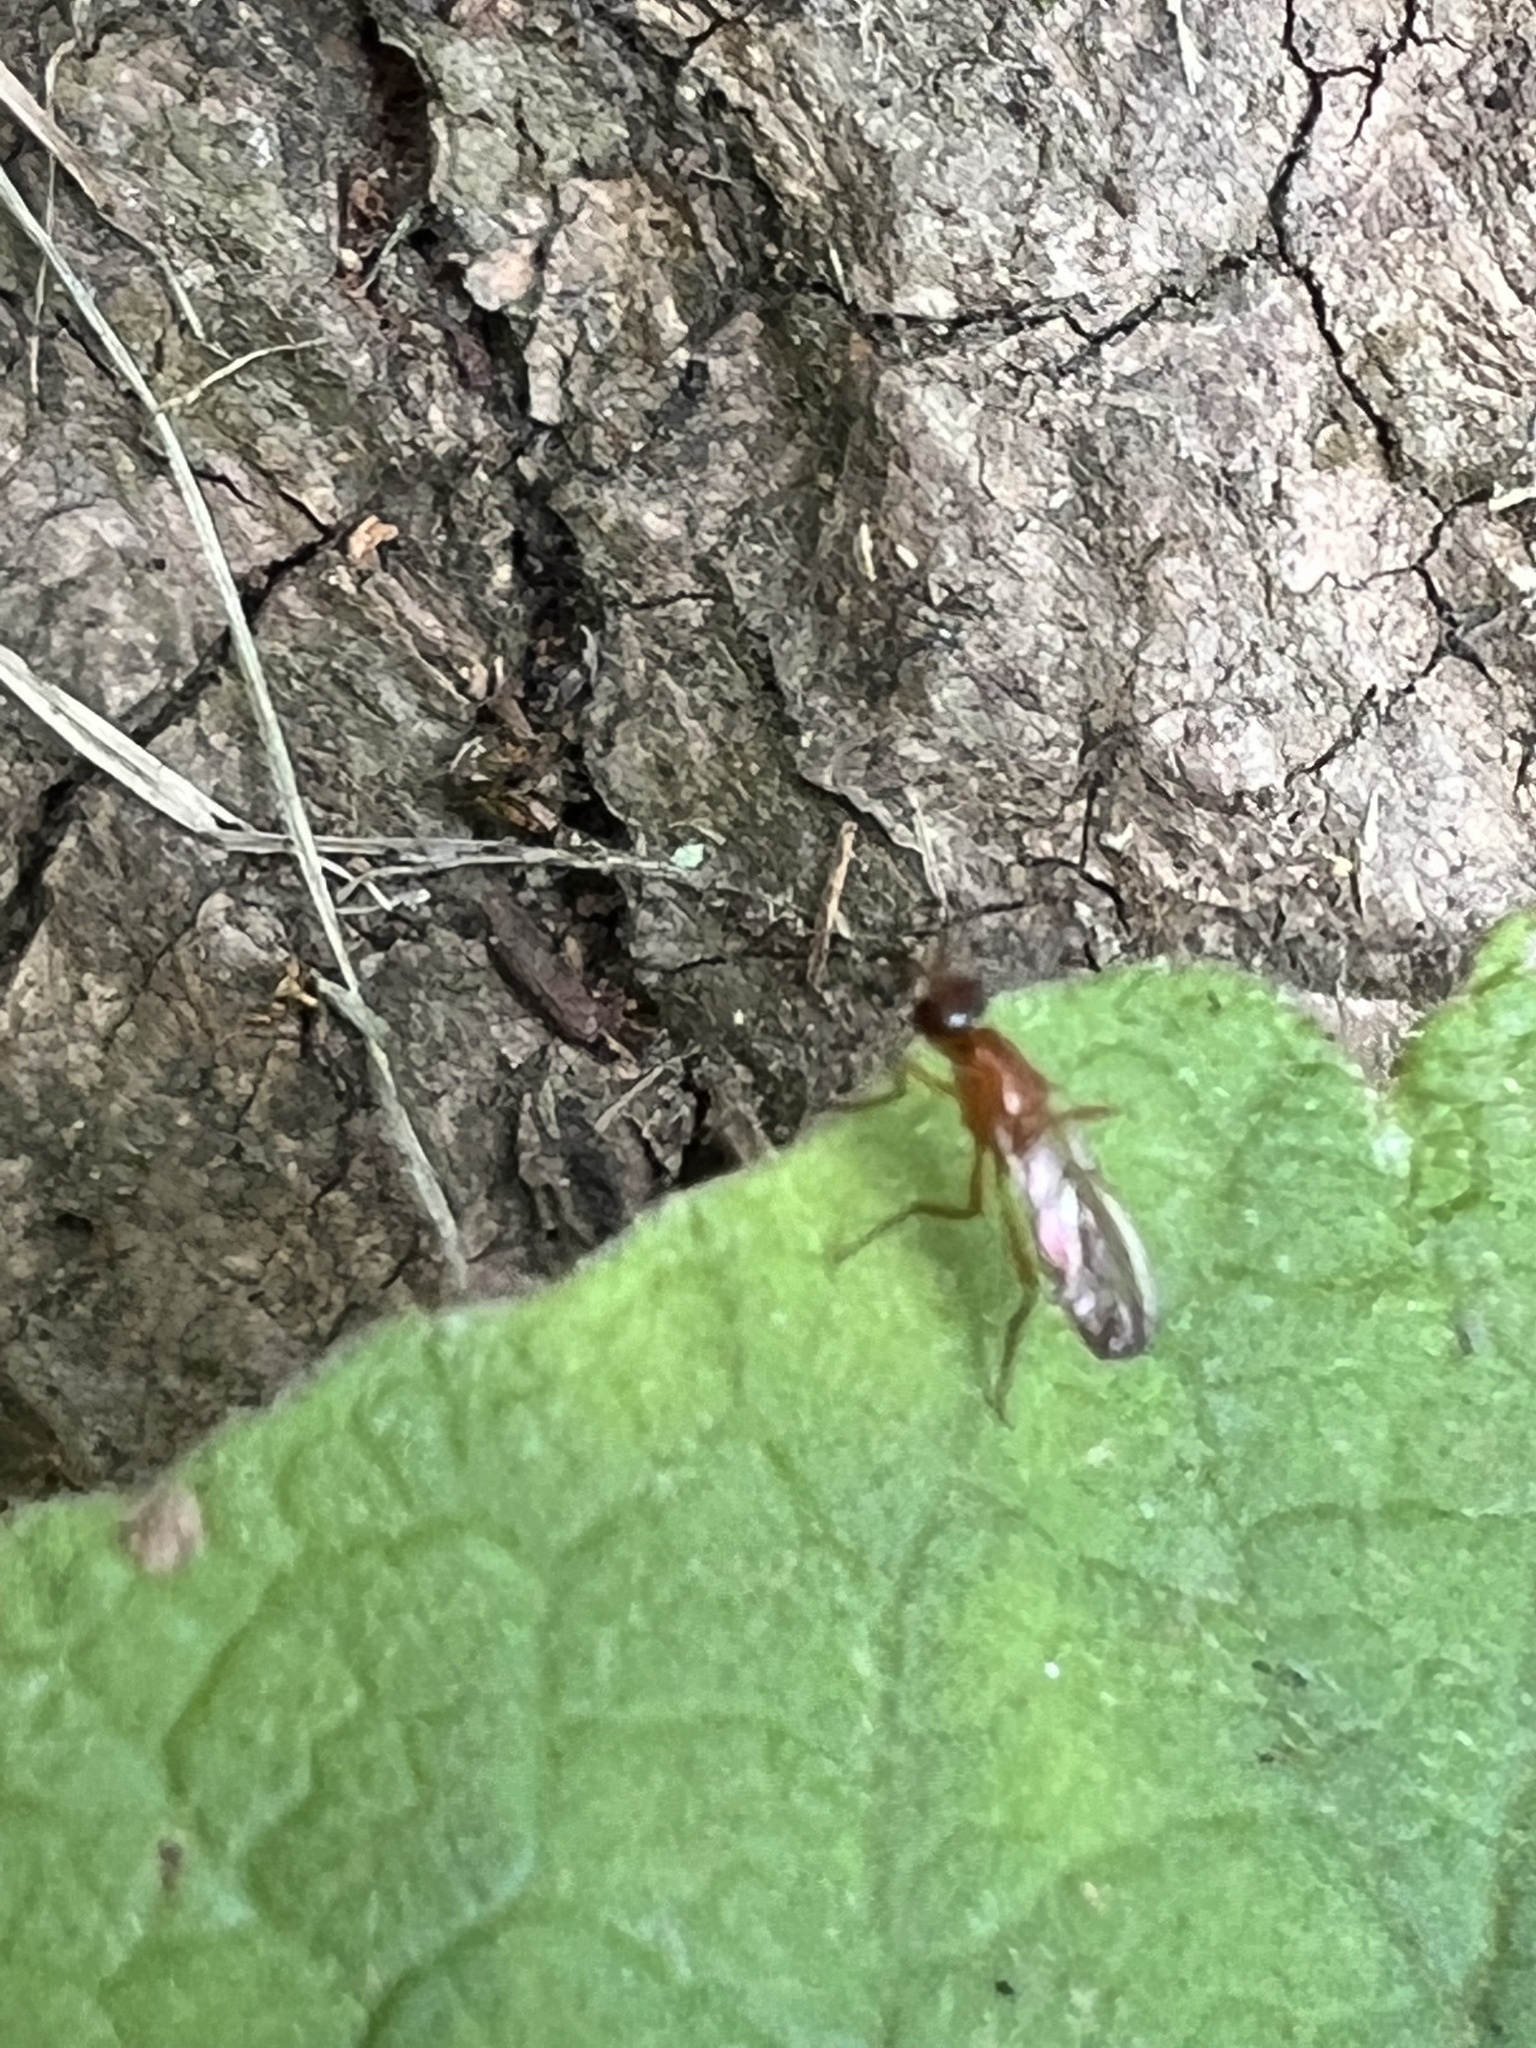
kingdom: Animalia
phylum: Arthropoda
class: Insecta
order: Diptera
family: Psilidae
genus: Loxocera
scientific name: Loxocera cylindrica
